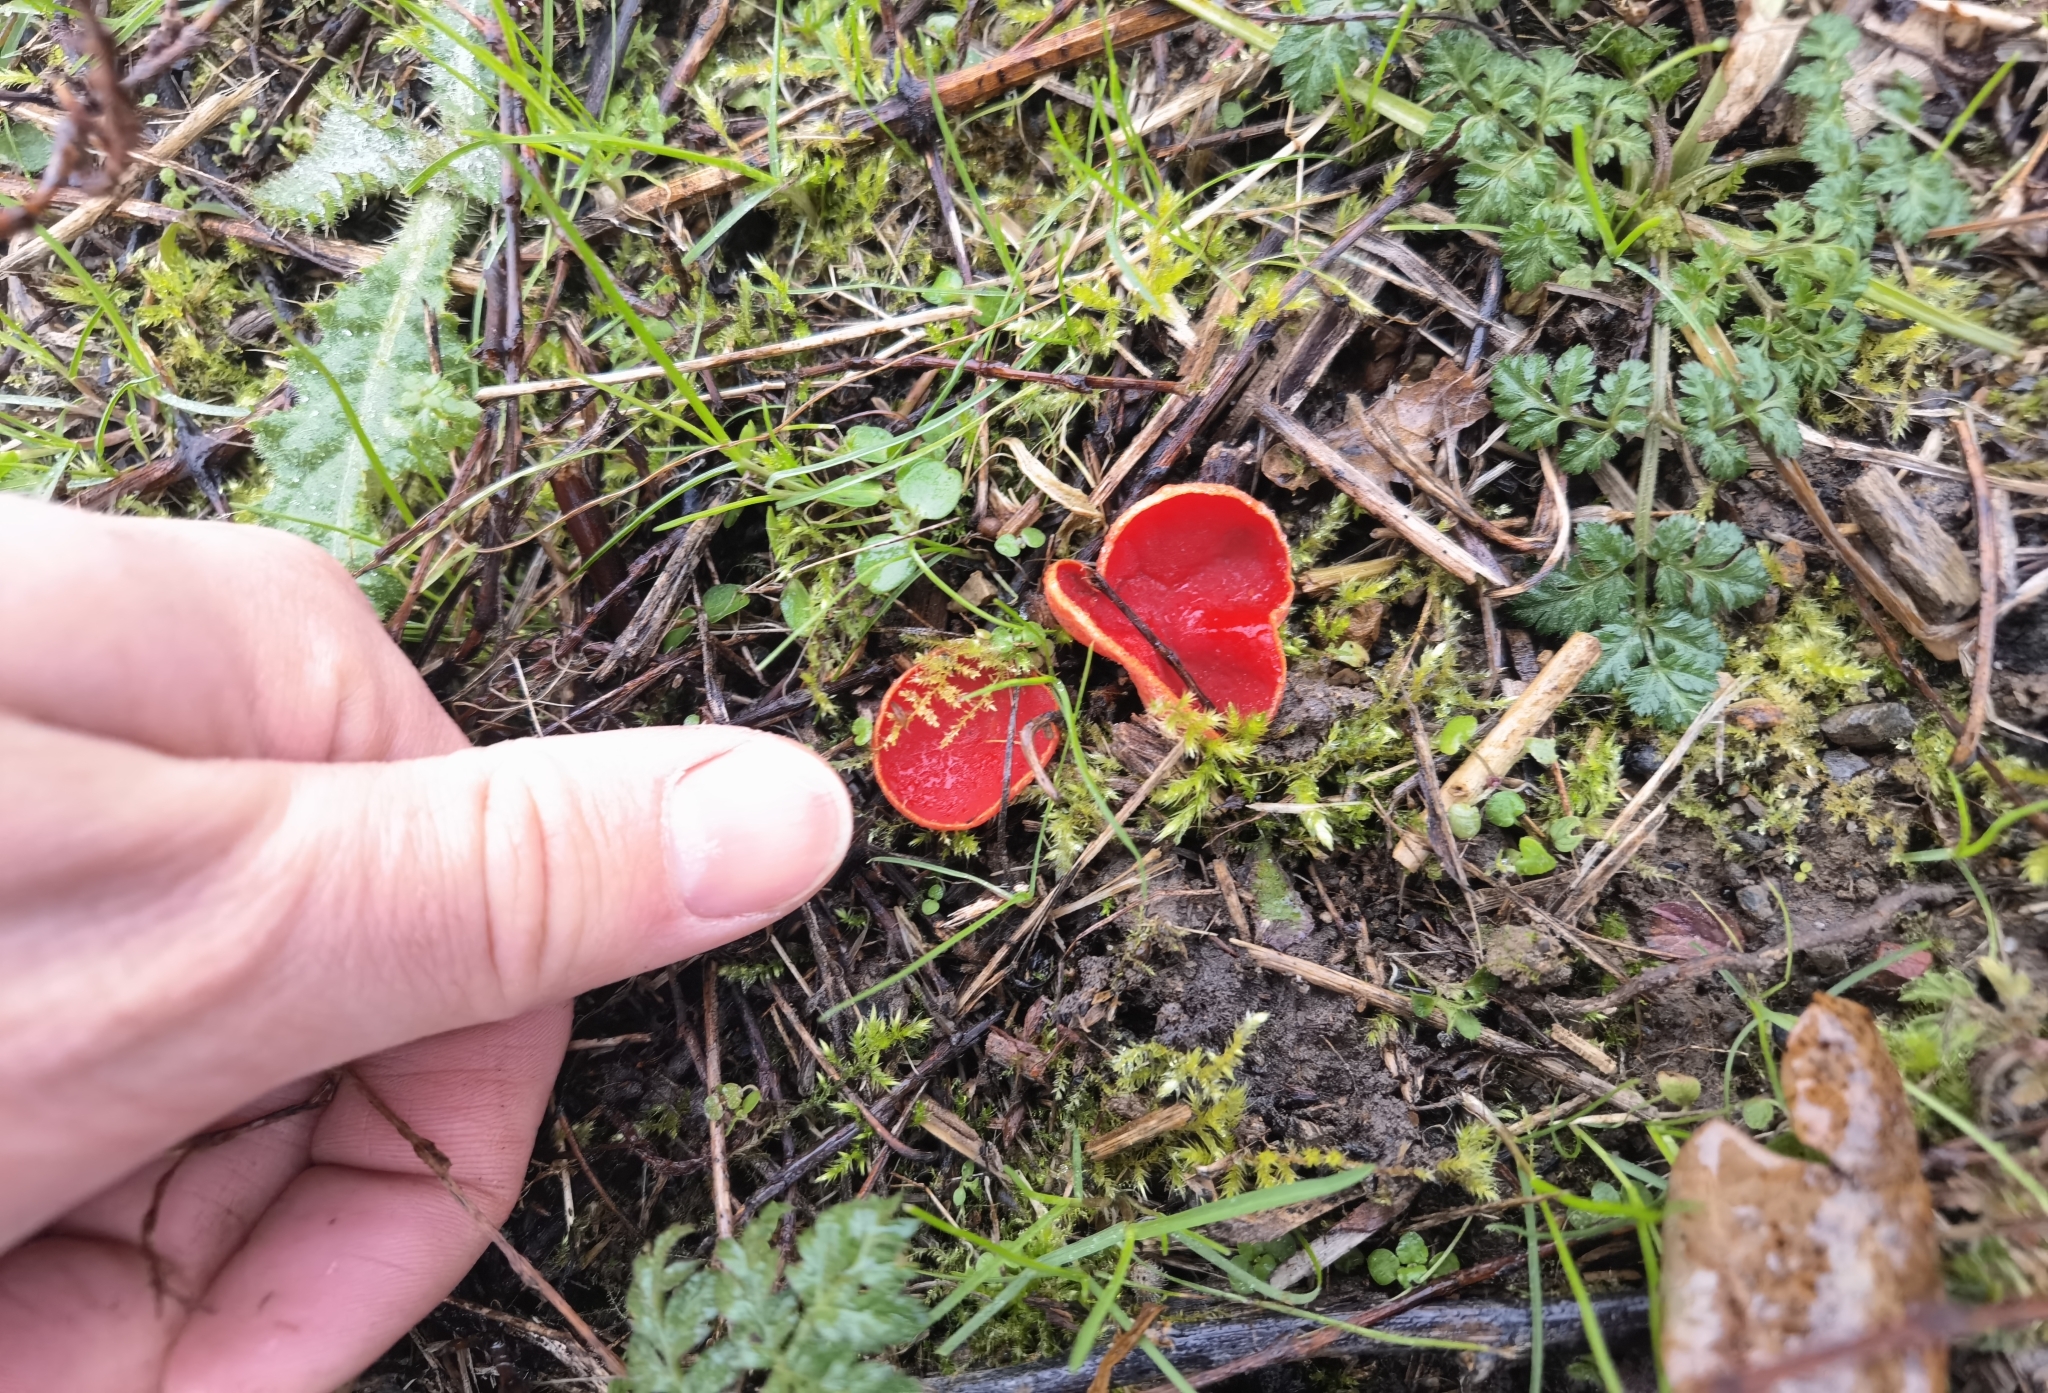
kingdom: Fungi
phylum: Ascomycota
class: Pezizomycetes
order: Pezizales
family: Sarcoscyphaceae
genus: Sarcoscypha
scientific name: Sarcoscypha
